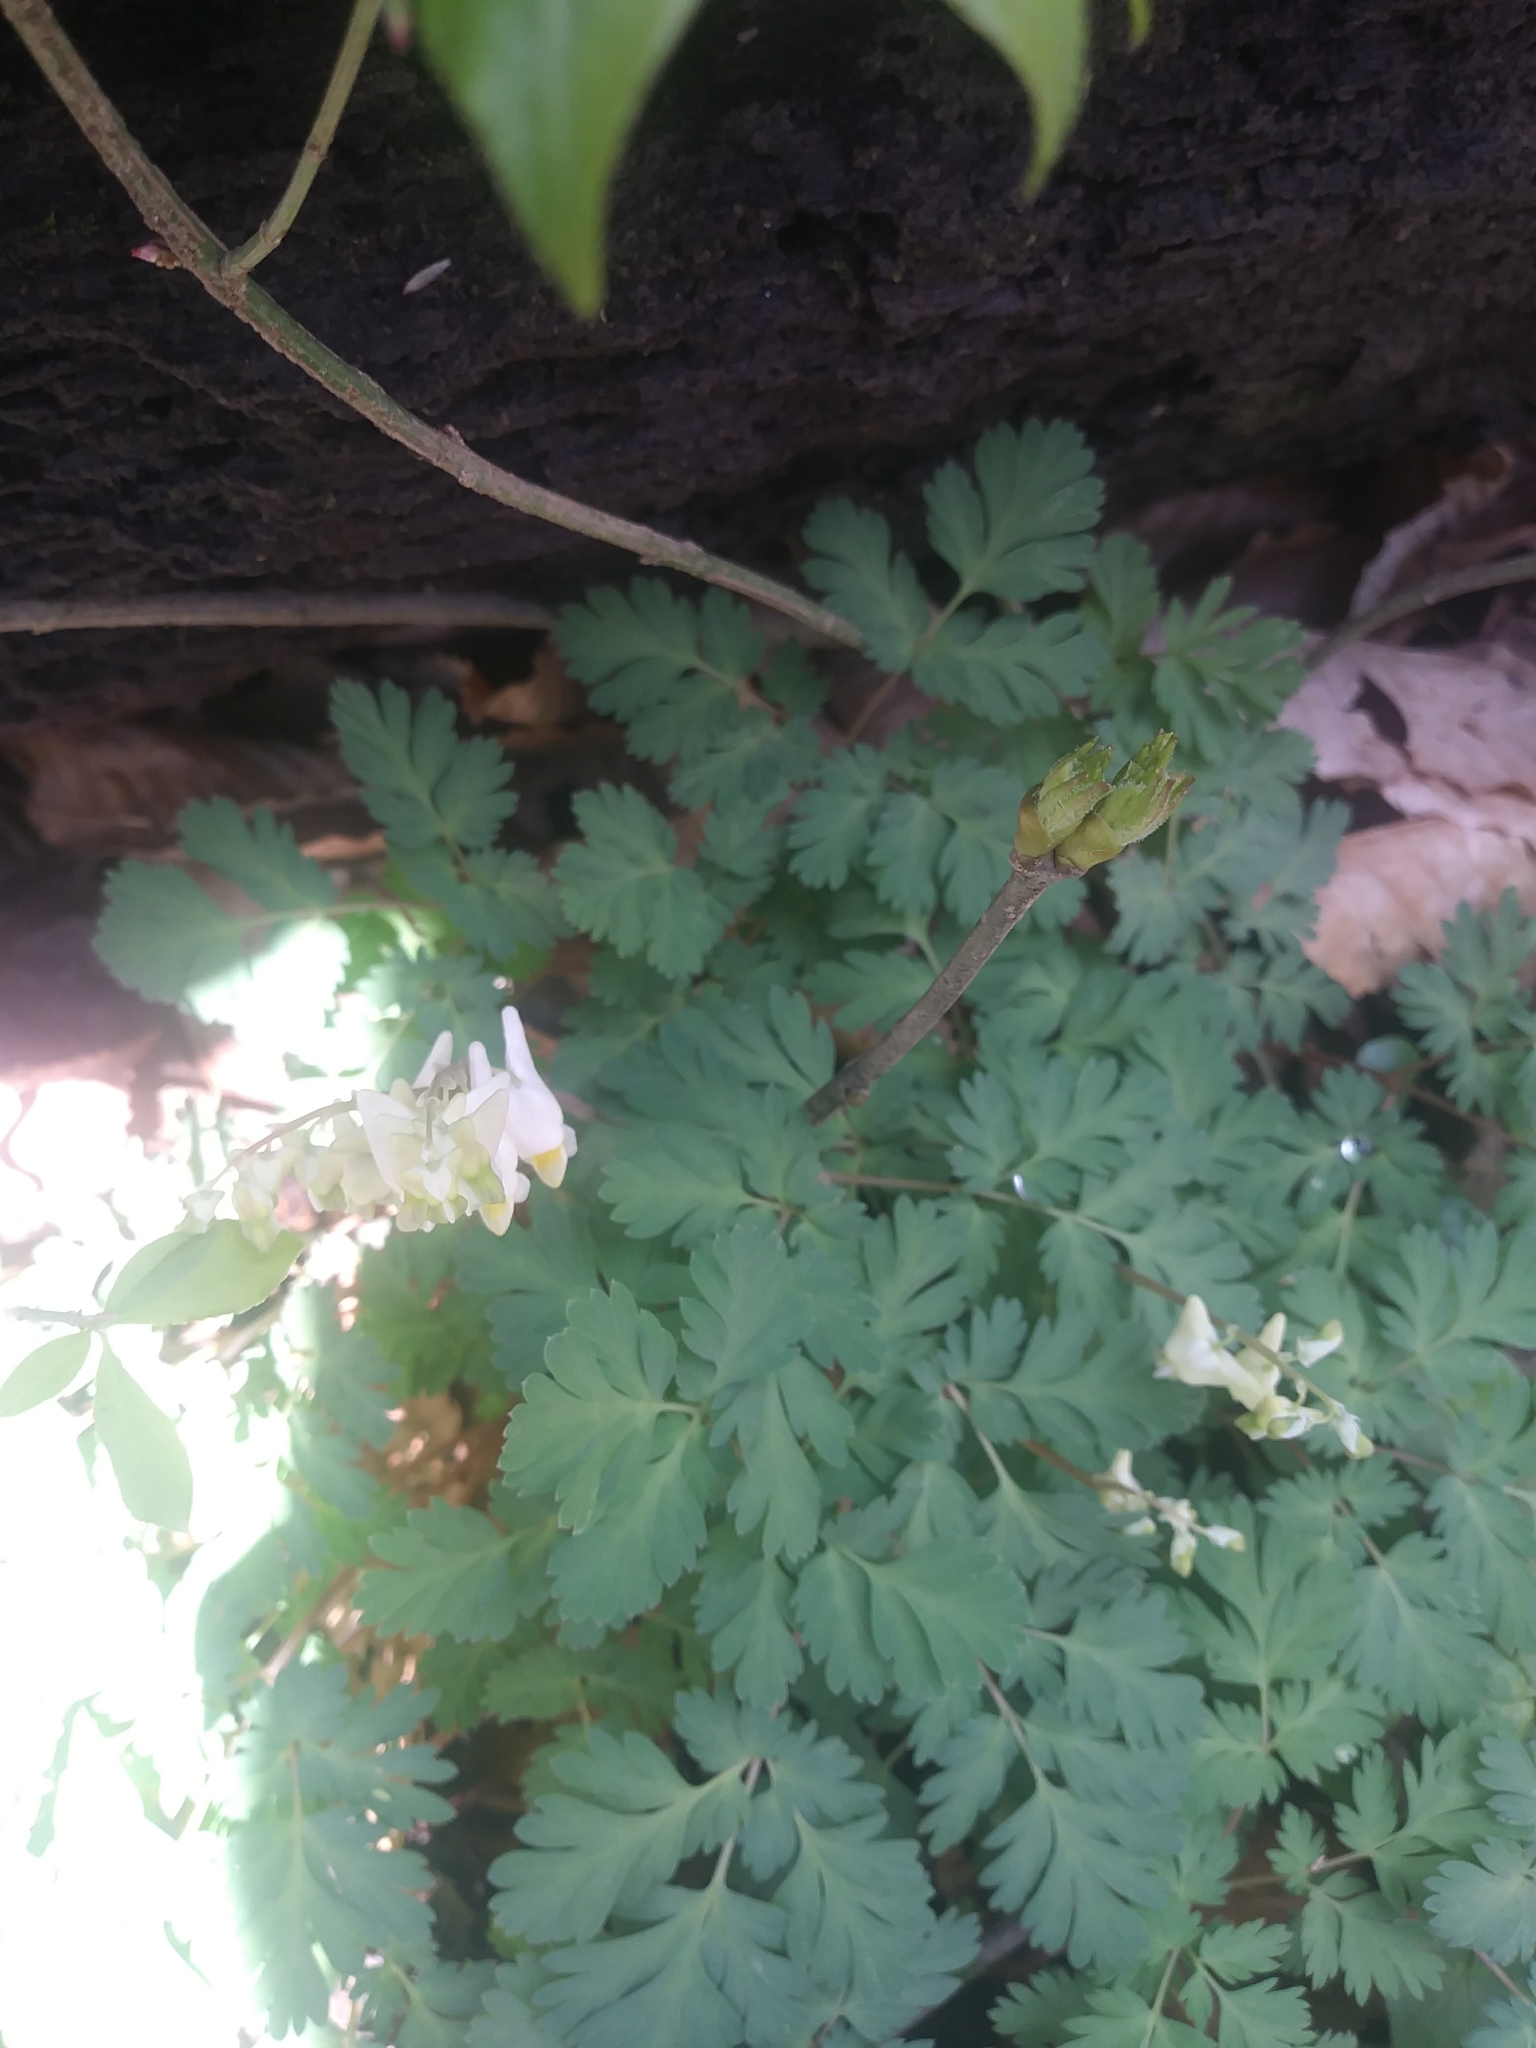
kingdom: Plantae
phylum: Tracheophyta
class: Magnoliopsida
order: Ranunculales
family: Papaveraceae
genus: Dicentra
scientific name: Dicentra cucullaria
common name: Dutchman's breeches
